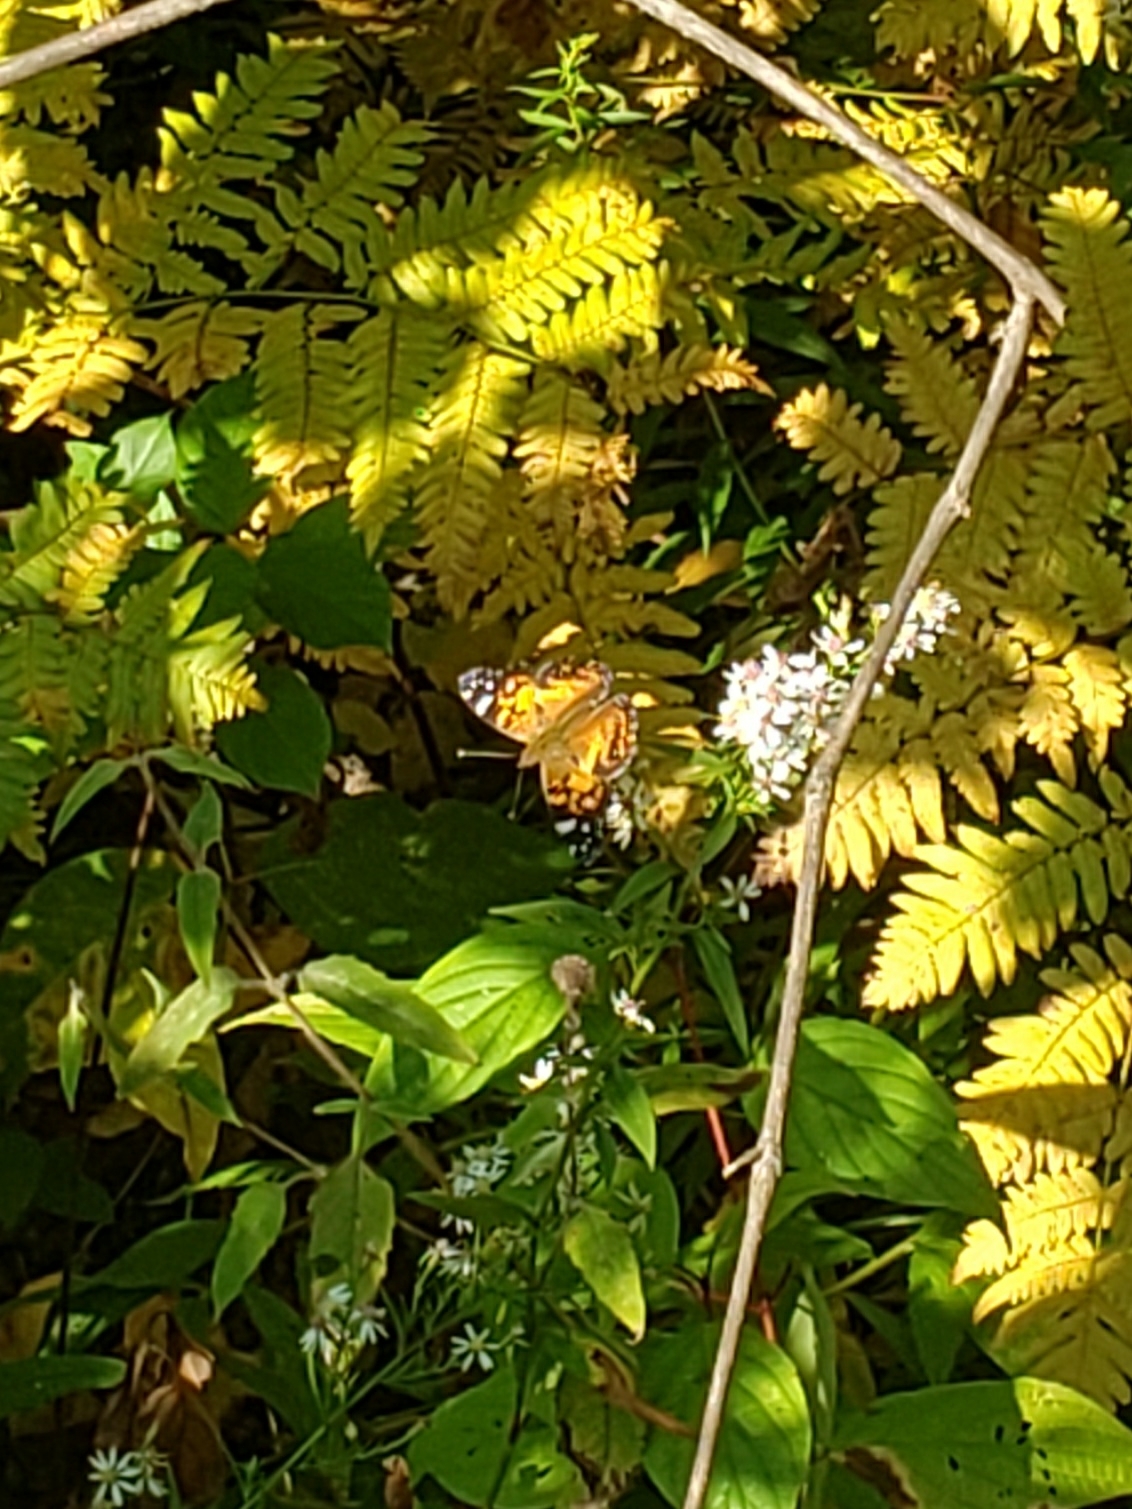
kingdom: Animalia
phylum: Arthropoda
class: Insecta
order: Lepidoptera
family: Nymphalidae
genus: Vanessa
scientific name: Vanessa virginiensis
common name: American lady
